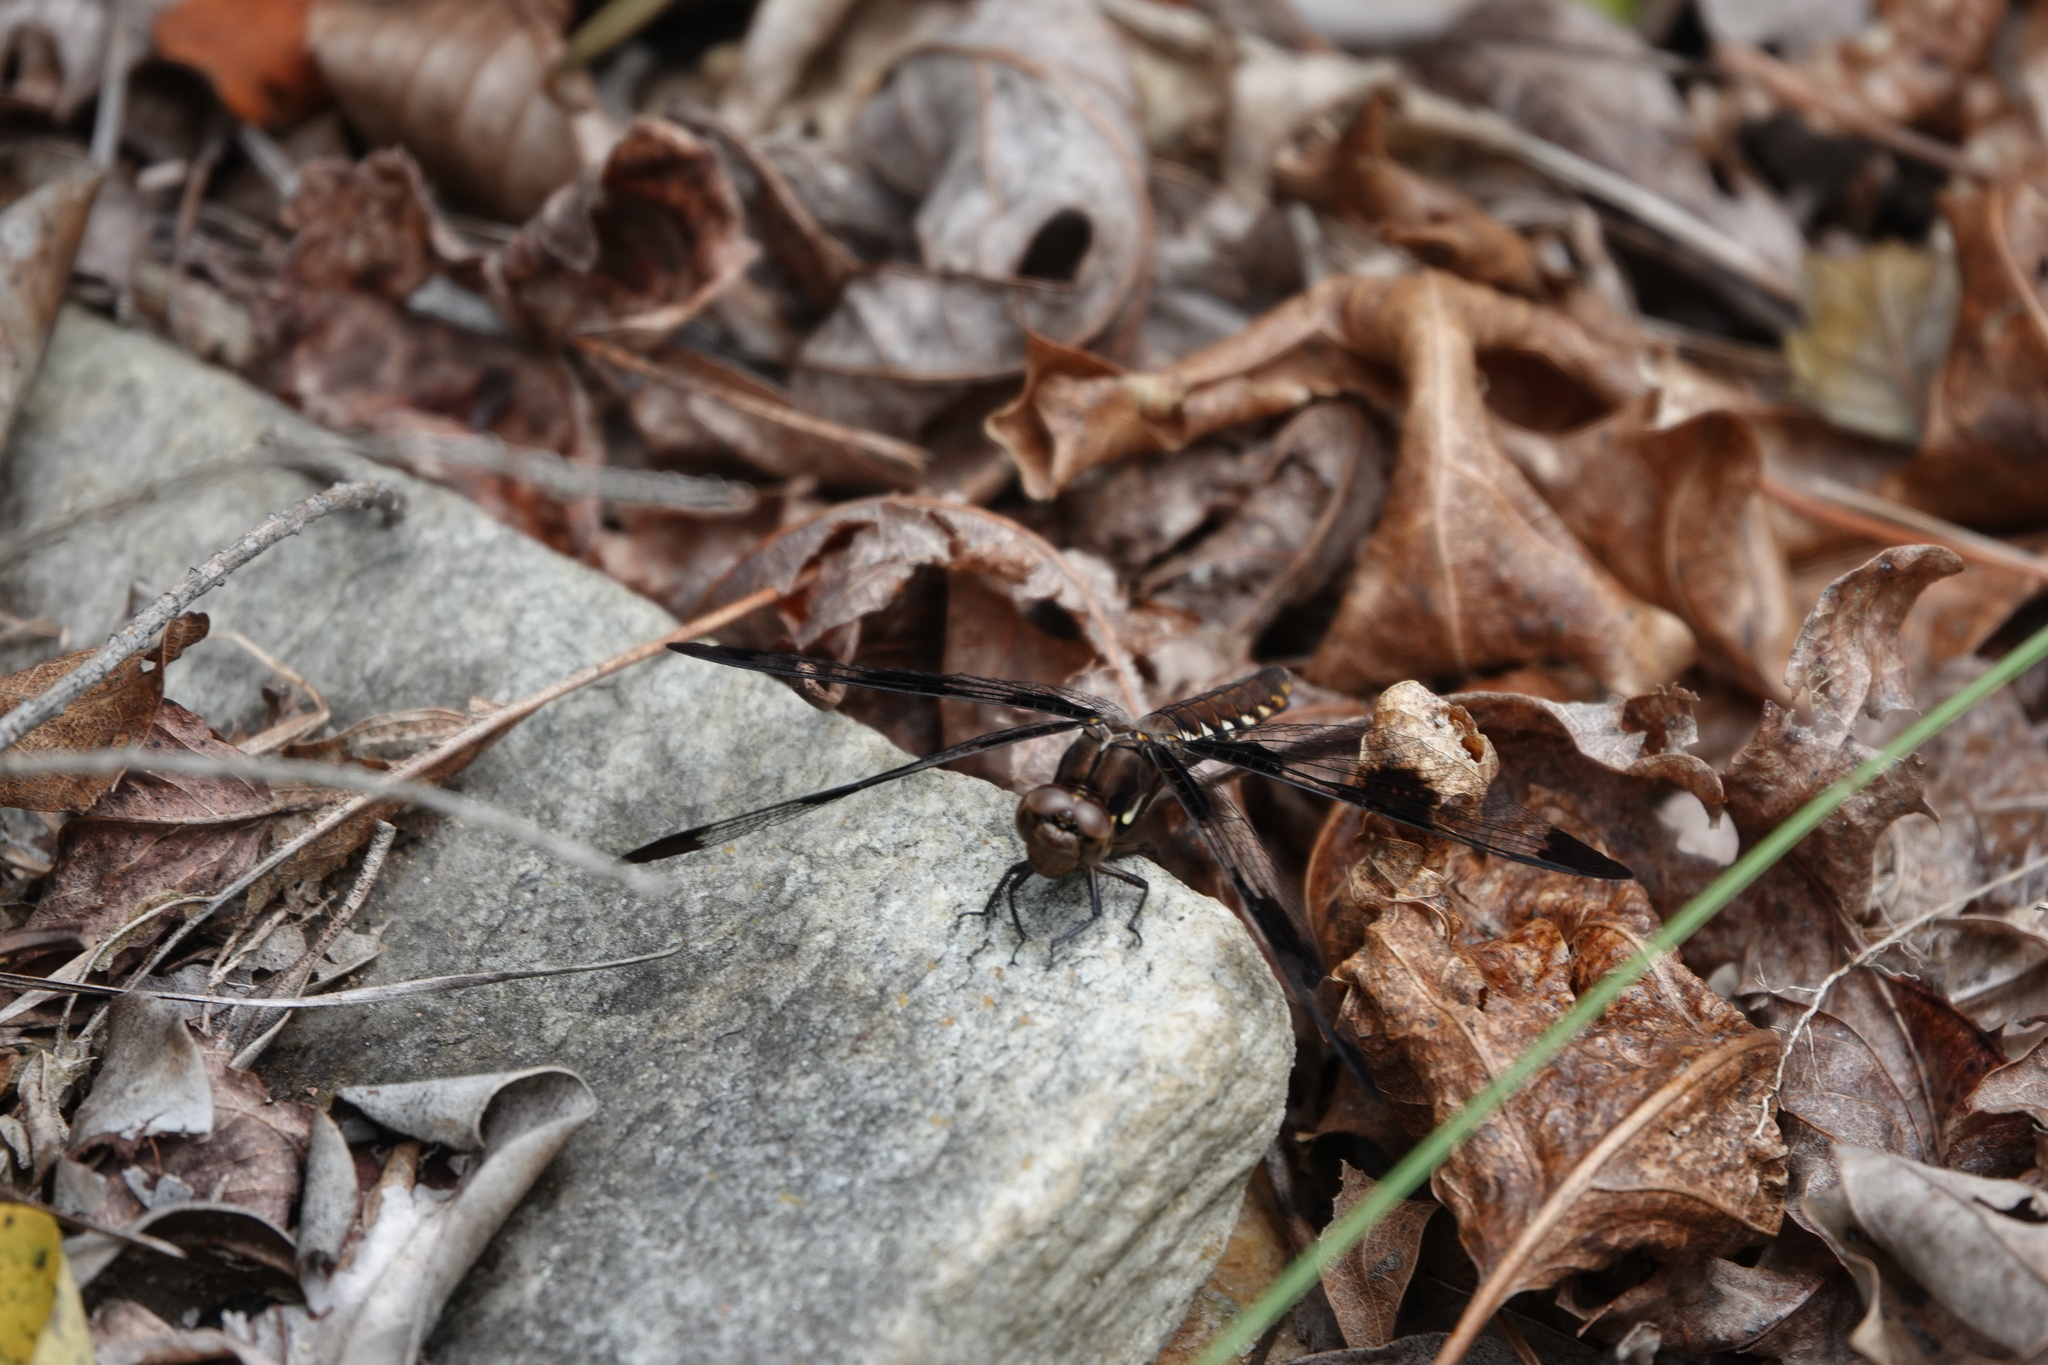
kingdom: Animalia
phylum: Arthropoda
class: Insecta
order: Odonata
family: Libellulidae
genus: Plathemis
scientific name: Plathemis lydia
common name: Common whitetail
